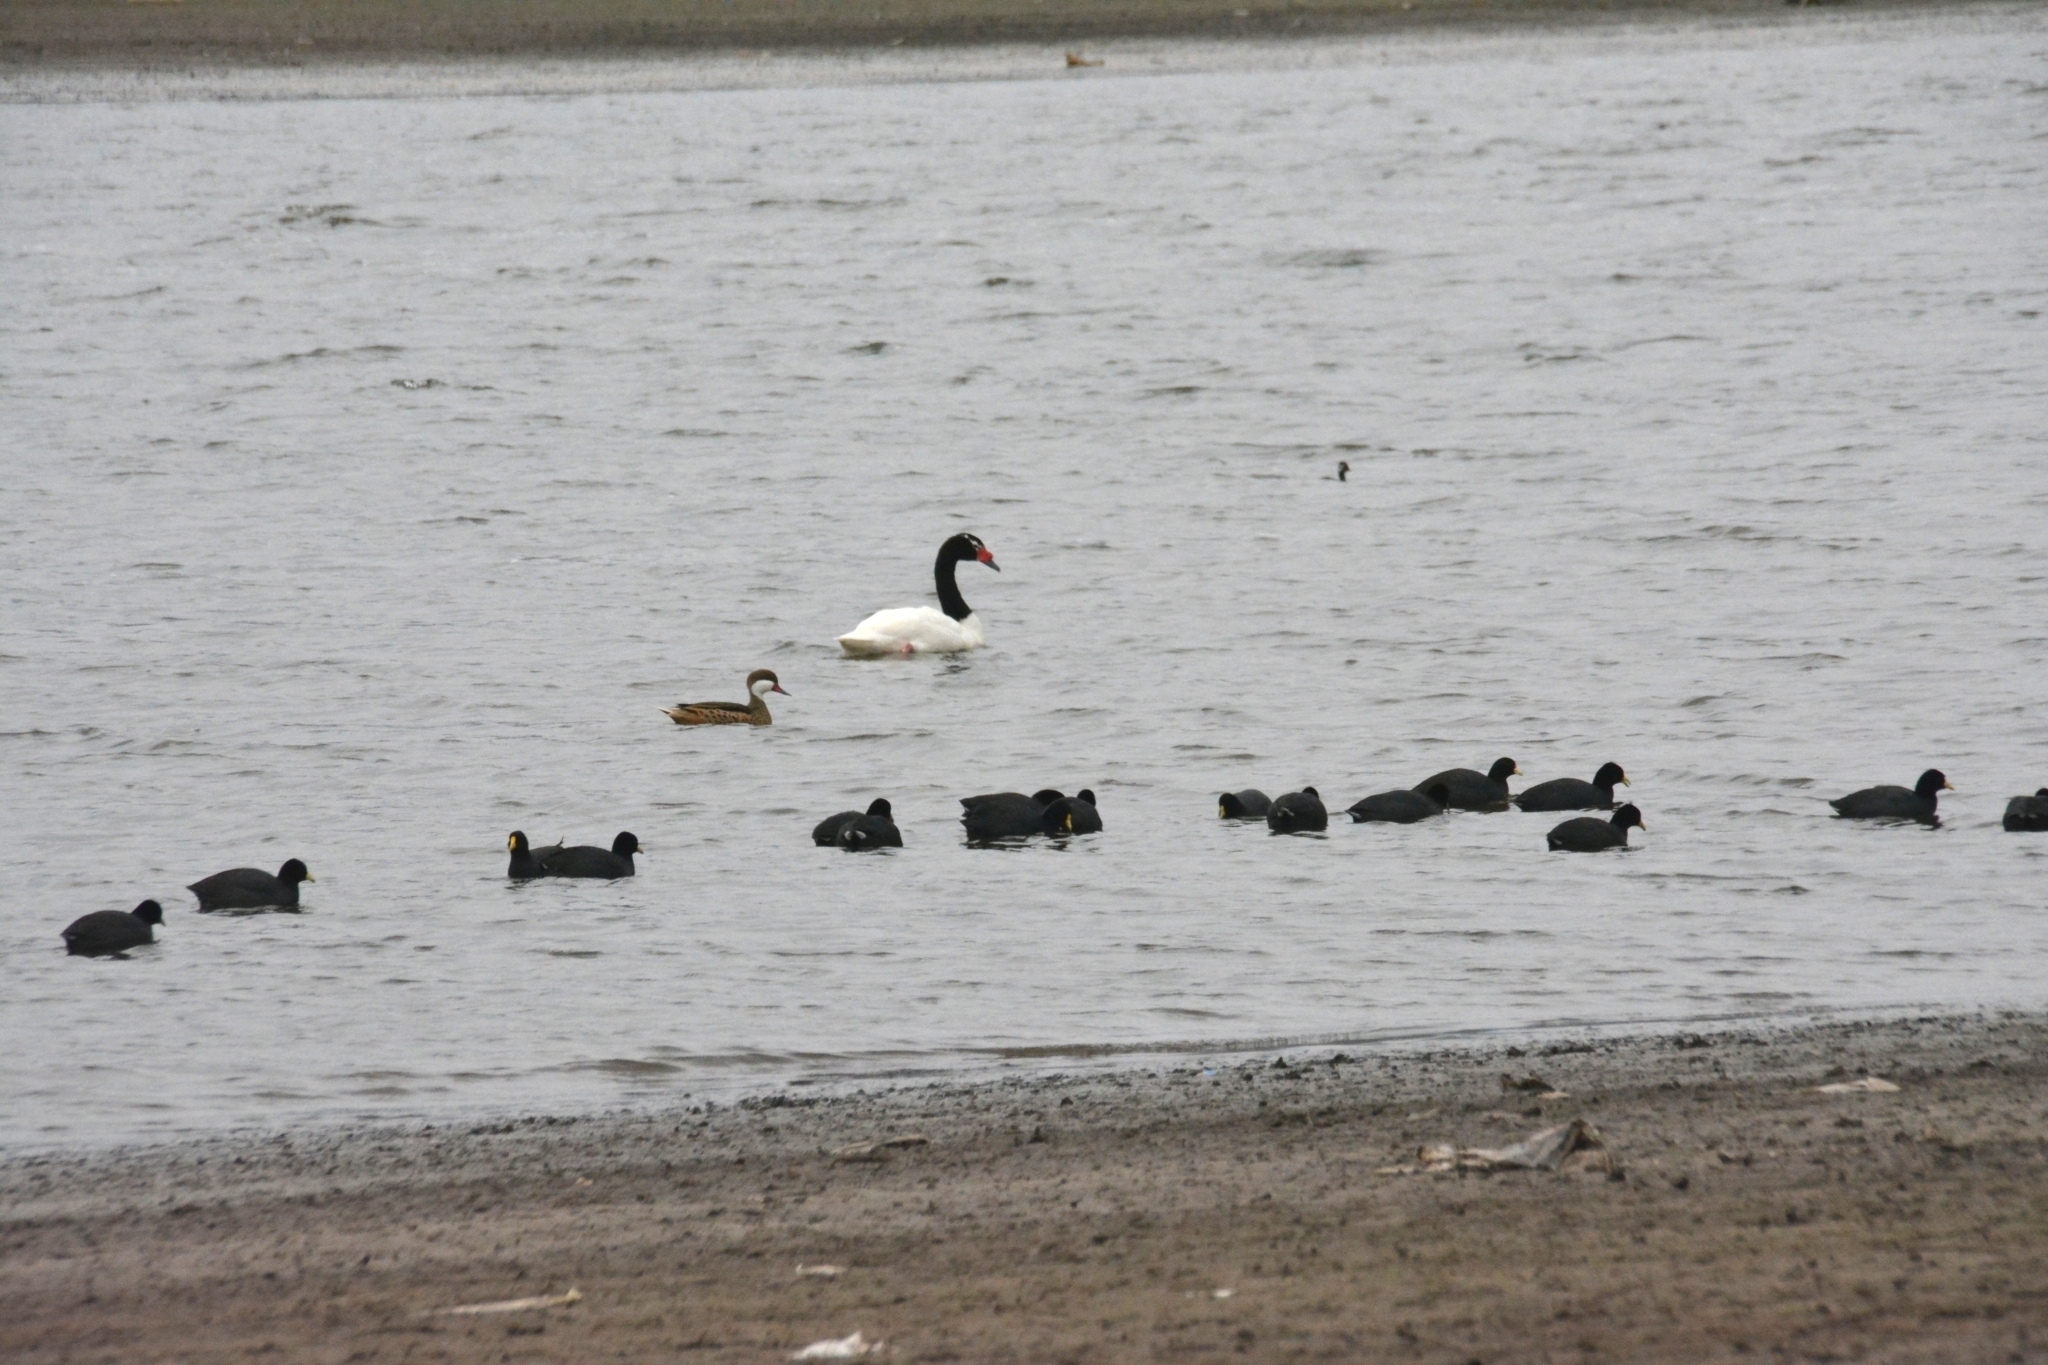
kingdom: Animalia
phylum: Chordata
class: Aves
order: Anseriformes
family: Anatidae
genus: Anas
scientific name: Anas bahamensis
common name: White-cheeked pintail
